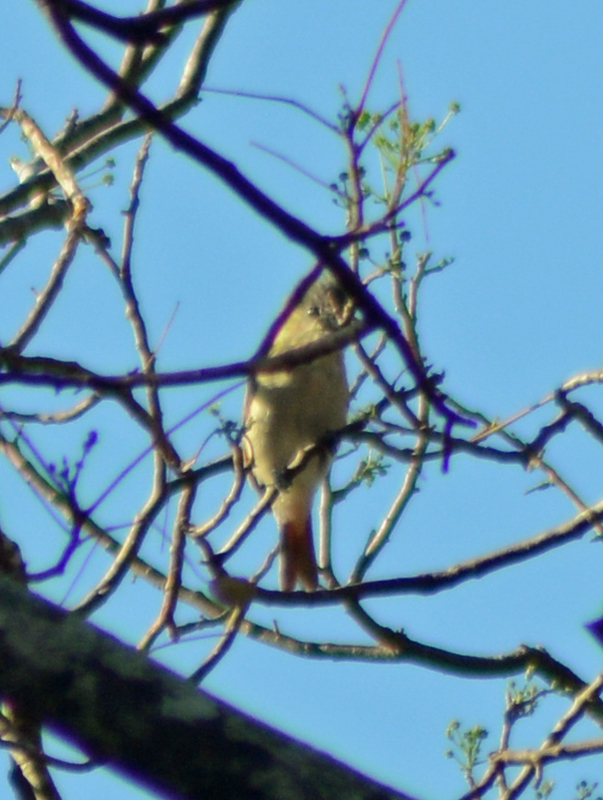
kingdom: Animalia
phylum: Chordata
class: Aves
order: Passeriformes
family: Cotingidae
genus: Pachyramphus
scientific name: Pachyramphus aglaiae
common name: Rose-throated becard
